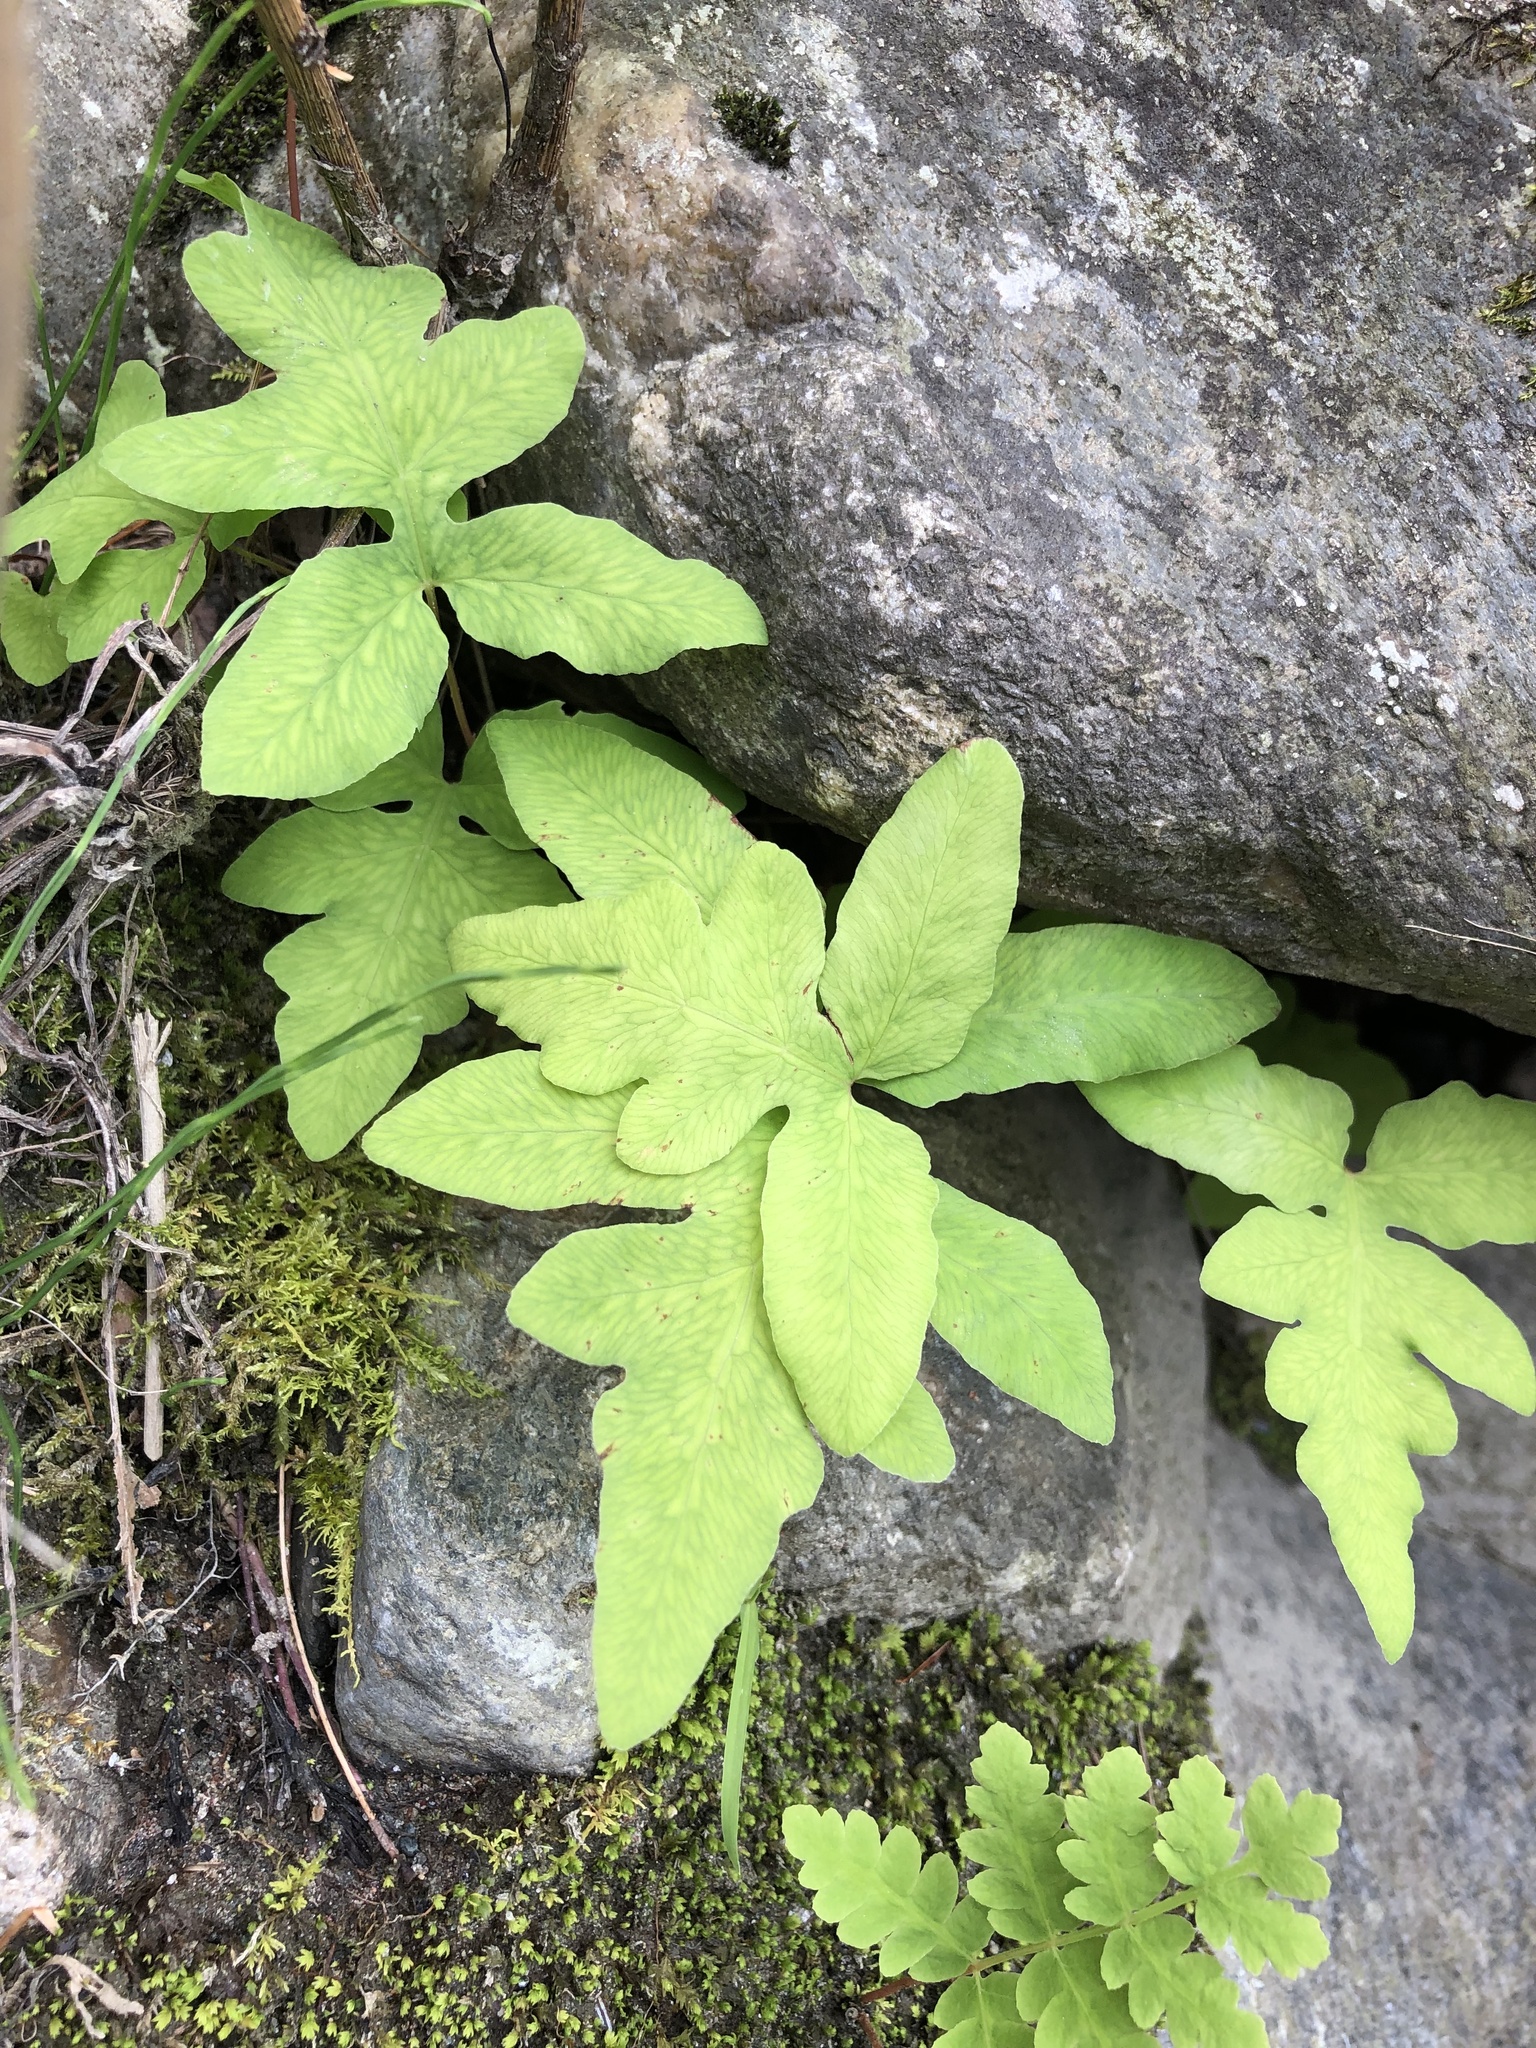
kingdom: Plantae
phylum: Tracheophyta
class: Polypodiopsida
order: Polypodiales
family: Onocleaceae
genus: Onoclea
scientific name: Onoclea sensibilis
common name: Sensitive fern
